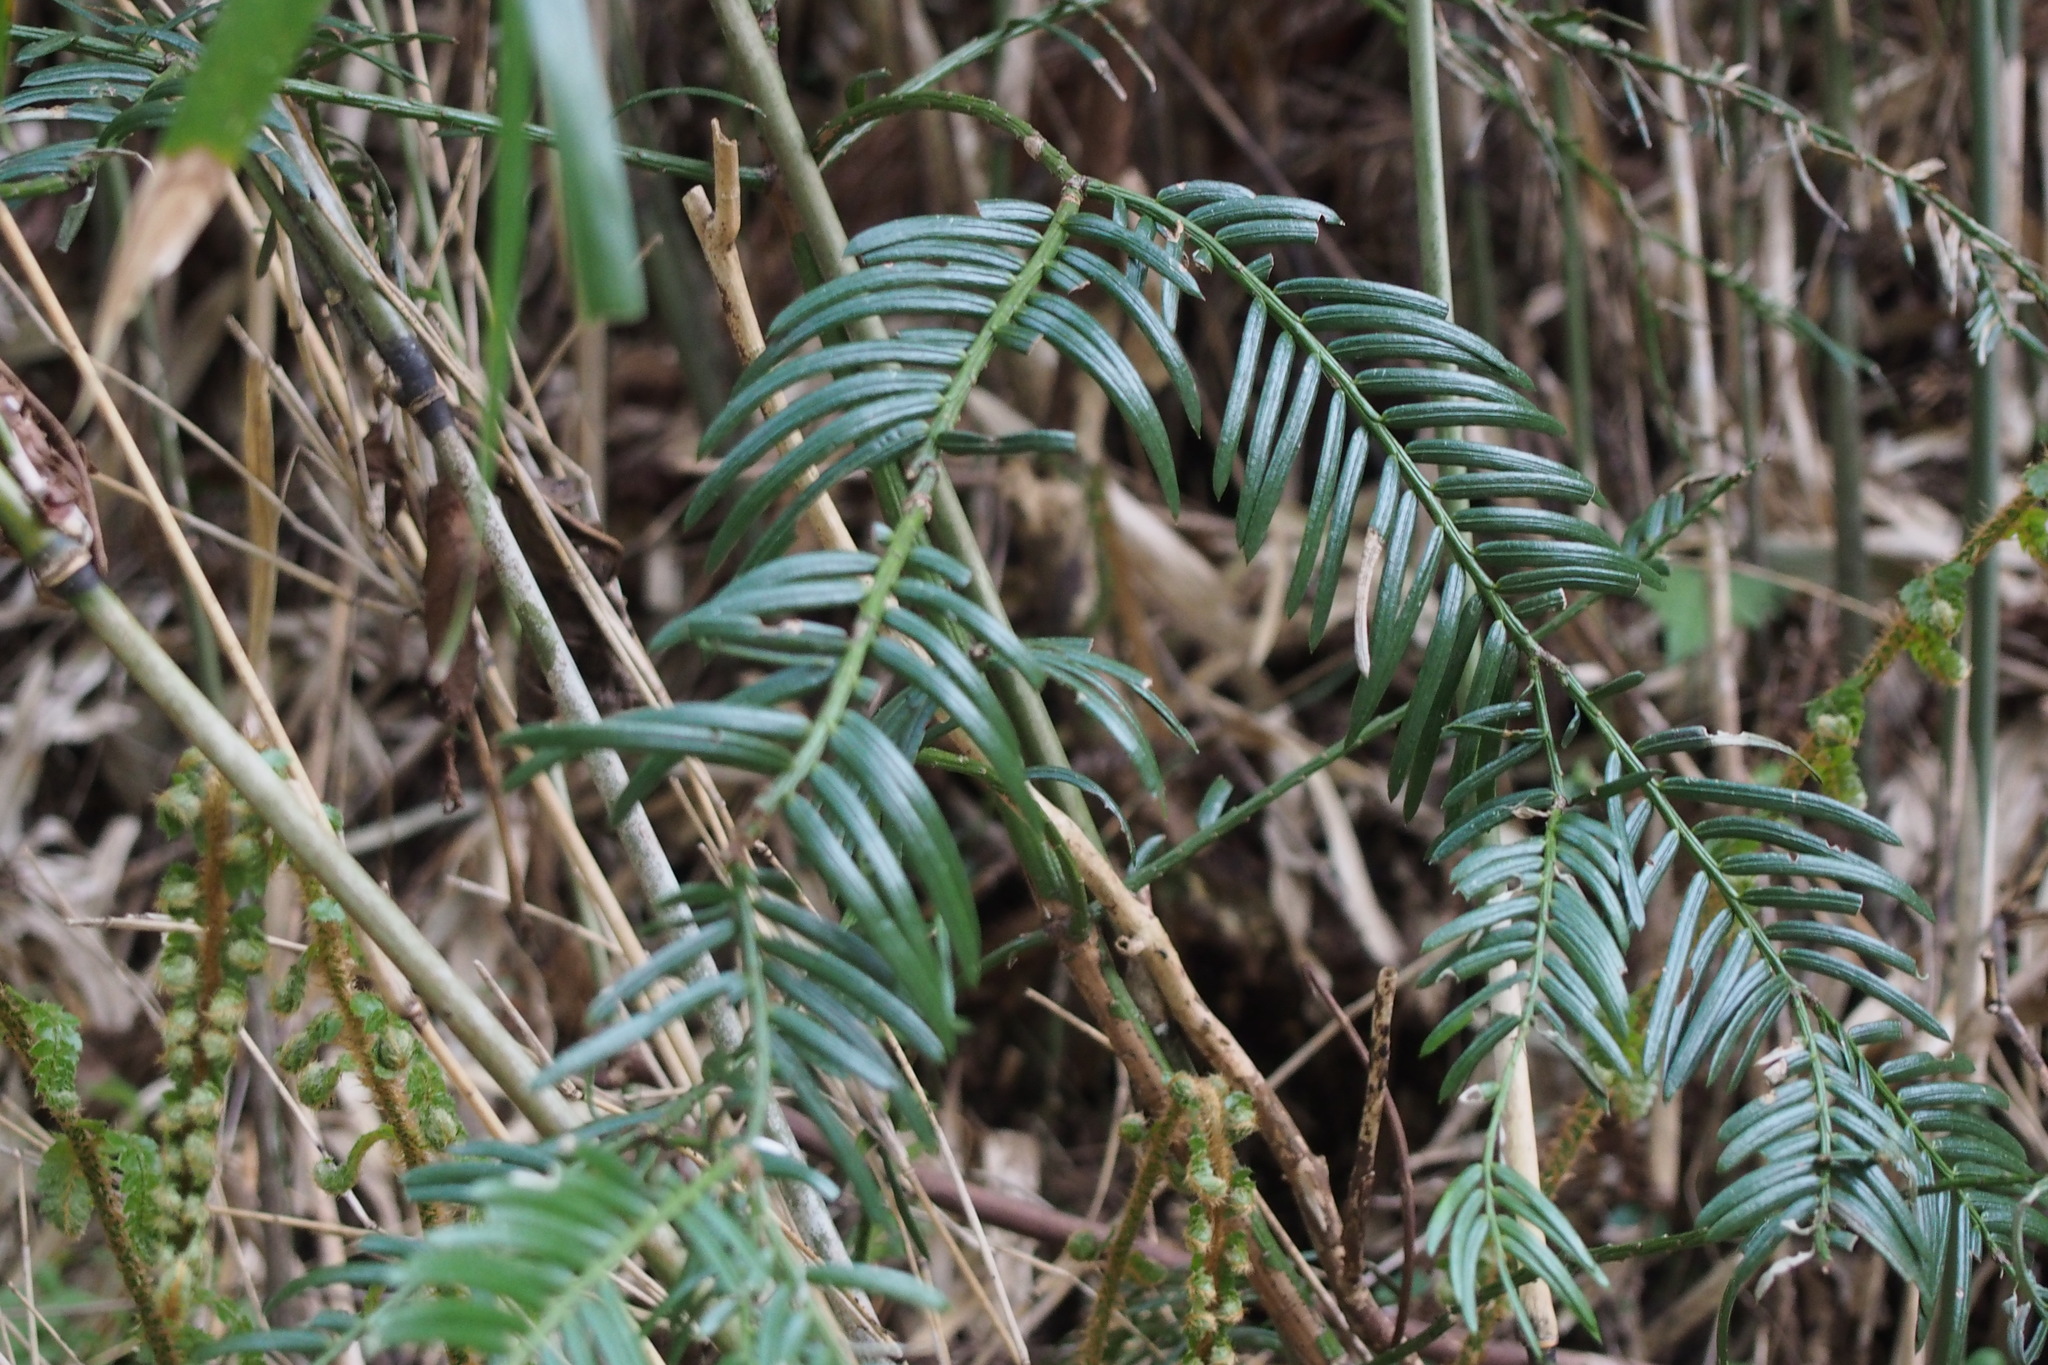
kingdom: Plantae
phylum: Tracheophyta
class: Pinopsida
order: Pinales
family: Cephalotaxaceae
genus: Cephalotaxus
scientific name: Cephalotaxus harringtonia
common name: Japanese plum-yew
